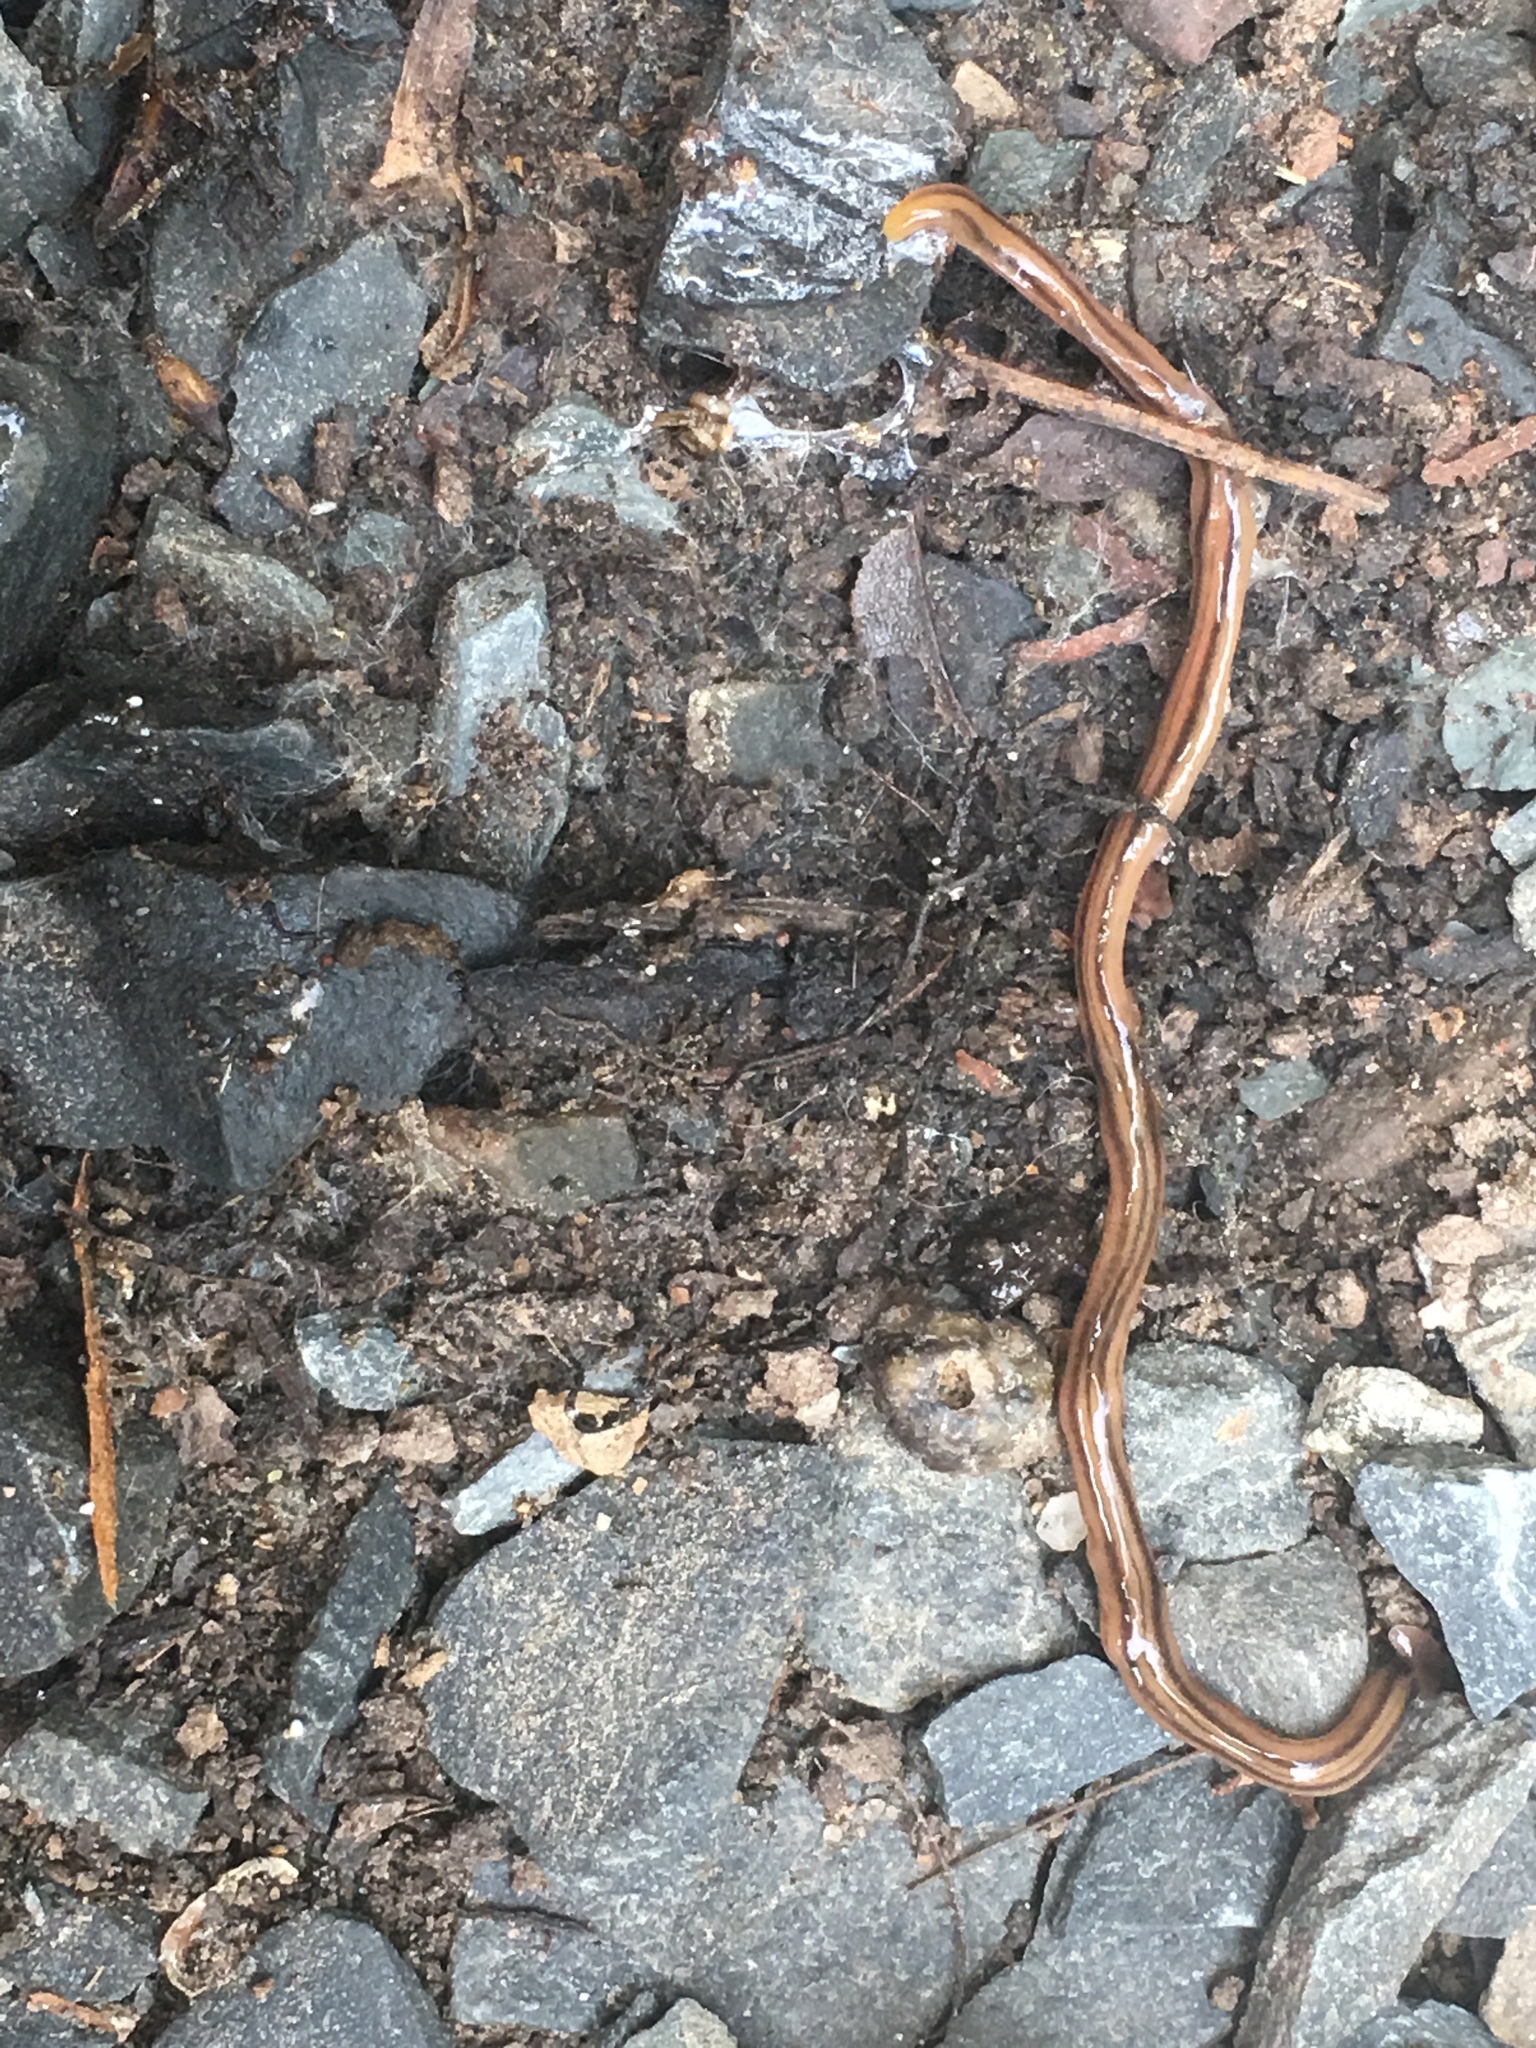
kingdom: Animalia
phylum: Platyhelminthes
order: Tricladida
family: Geoplanidae
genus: Bipalium
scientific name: Bipalium kewense
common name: Hammerhead flatworm
